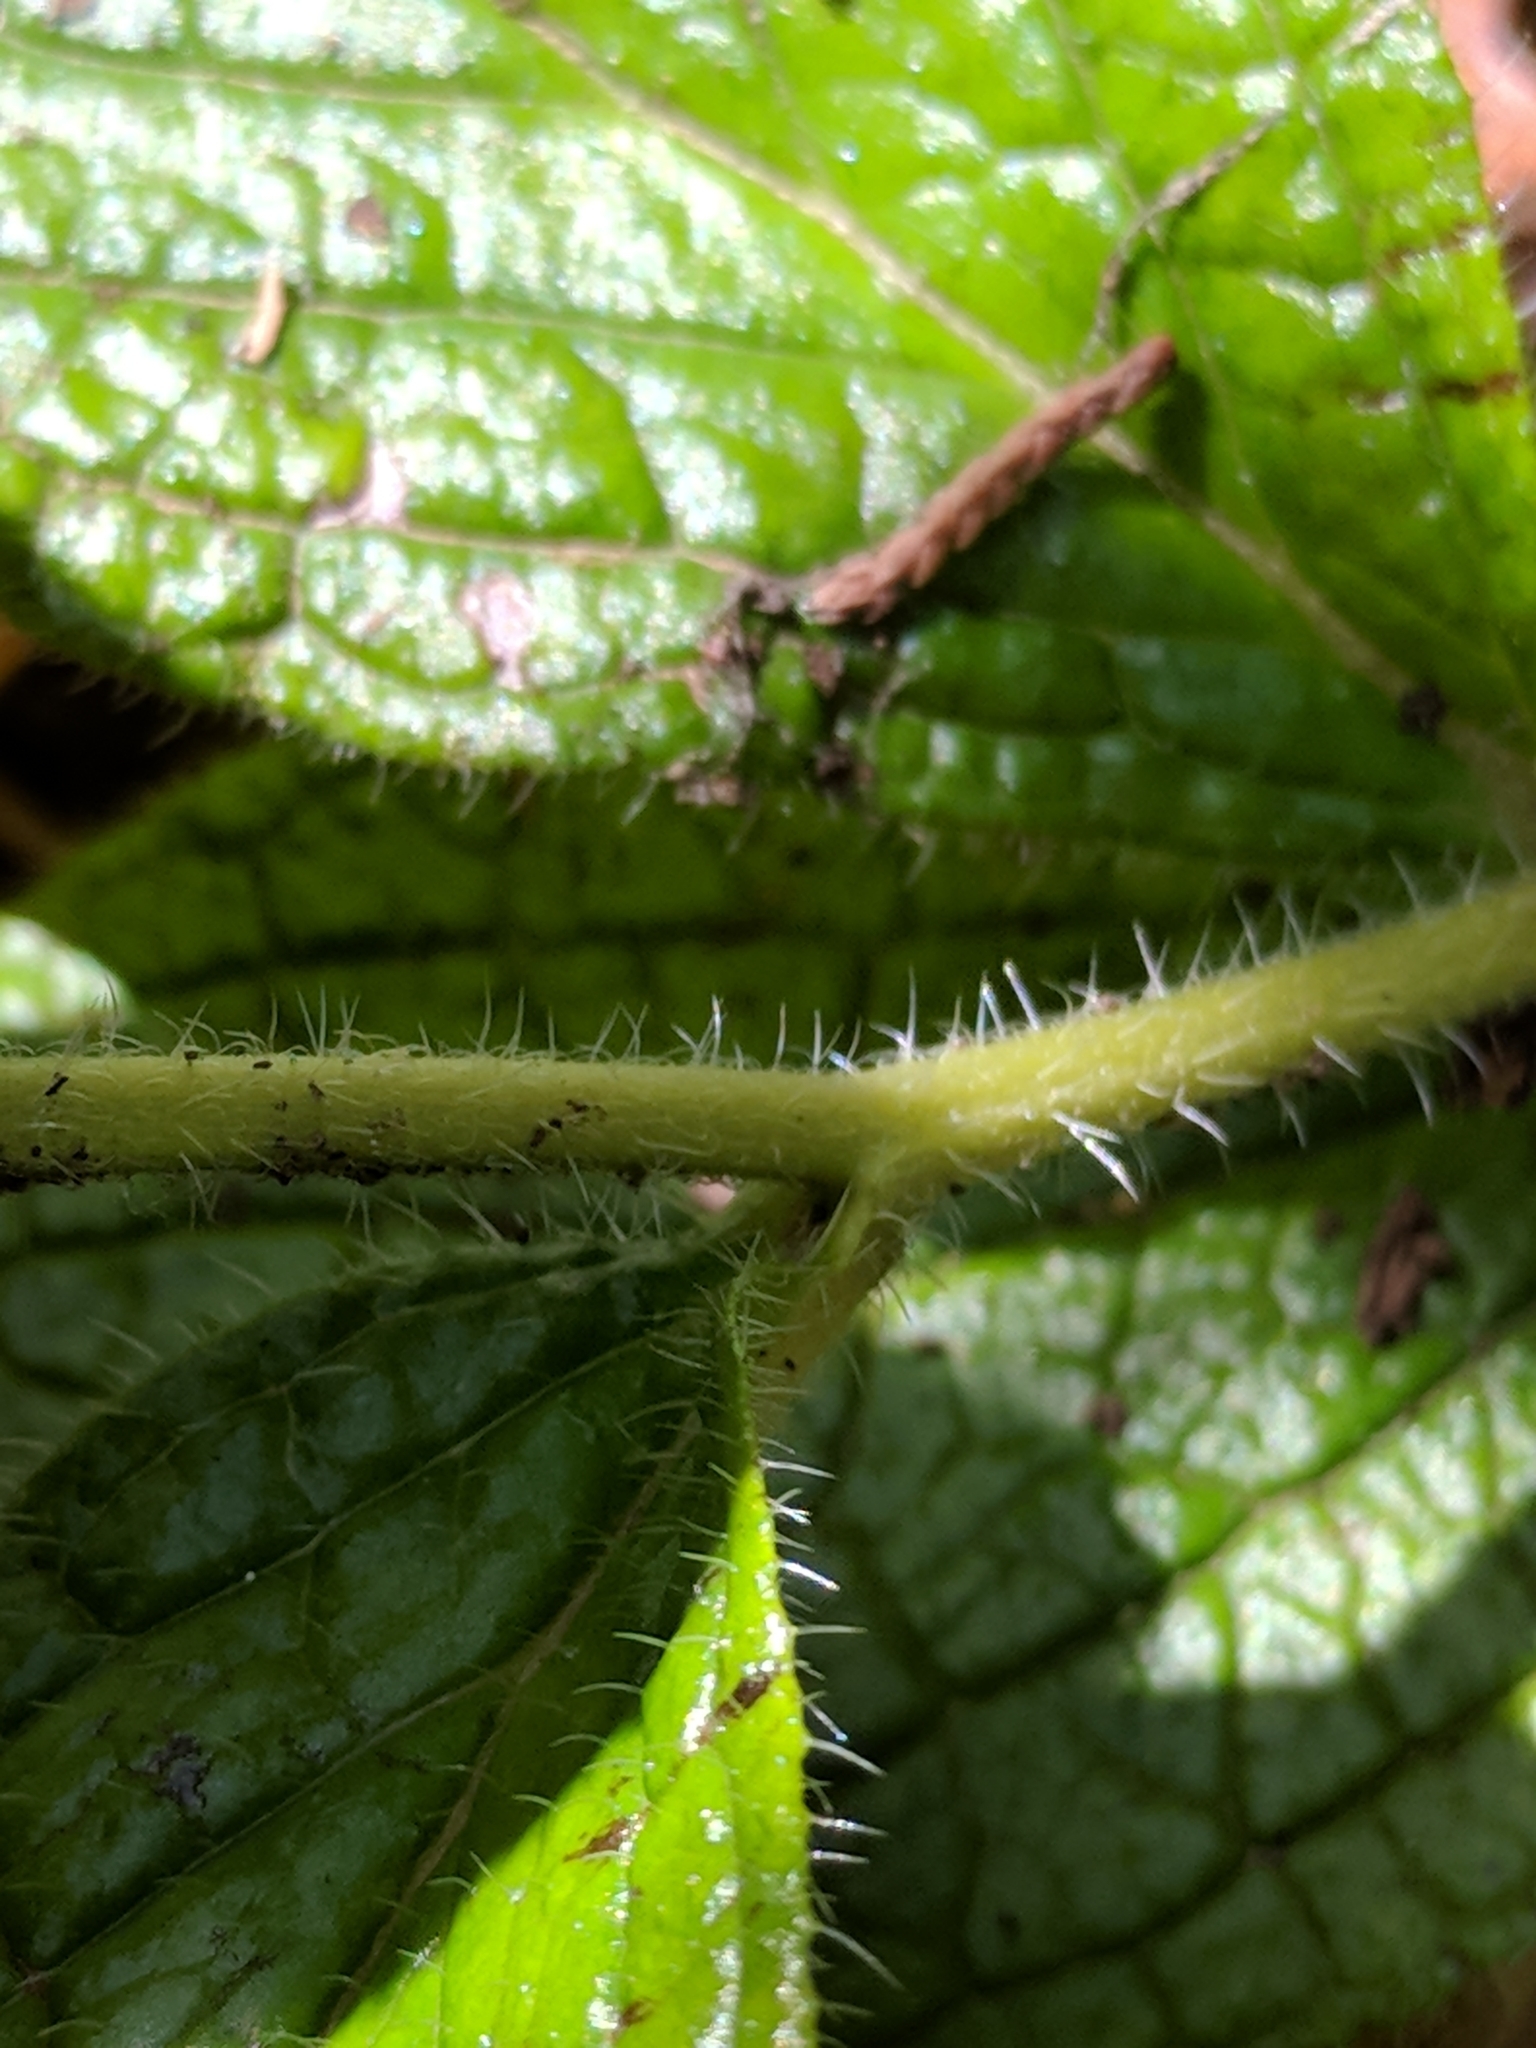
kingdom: Plantae
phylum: Tracheophyta
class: Magnoliopsida
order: Boraginales
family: Boraginaceae
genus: Lithospermum
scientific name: Lithospermum helleri
